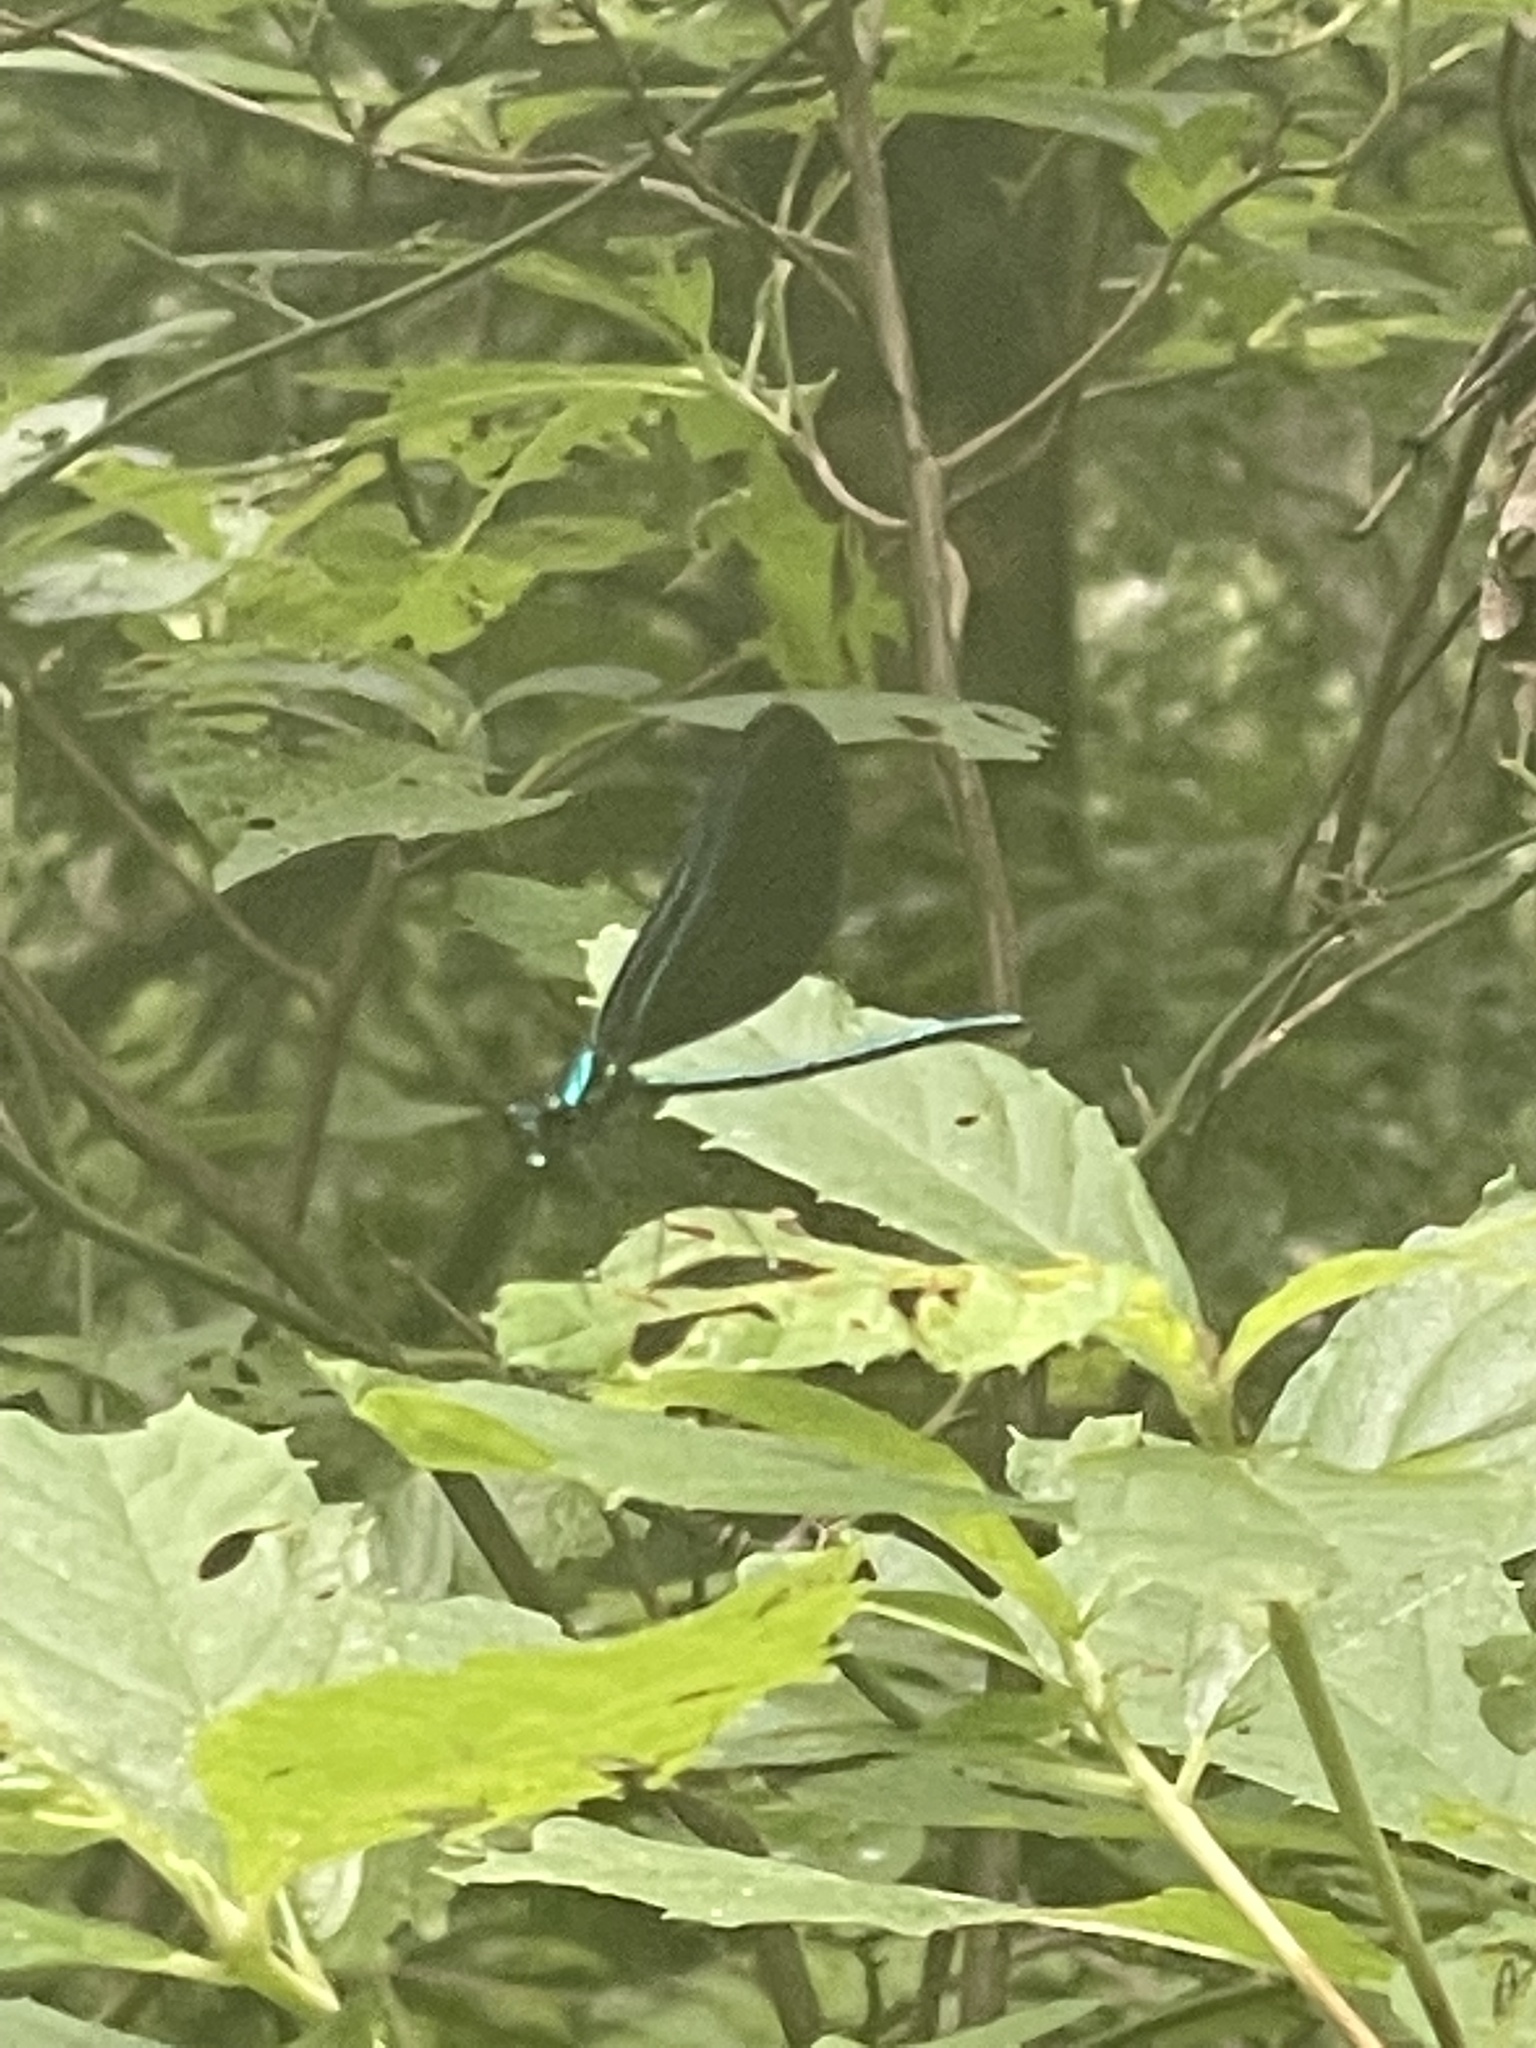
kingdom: Animalia
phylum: Arthropoda
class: Insecta
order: Odonata
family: Calopterygidae
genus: Calopteryx
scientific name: Calopteryx maculata
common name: Ebony jewelwing
